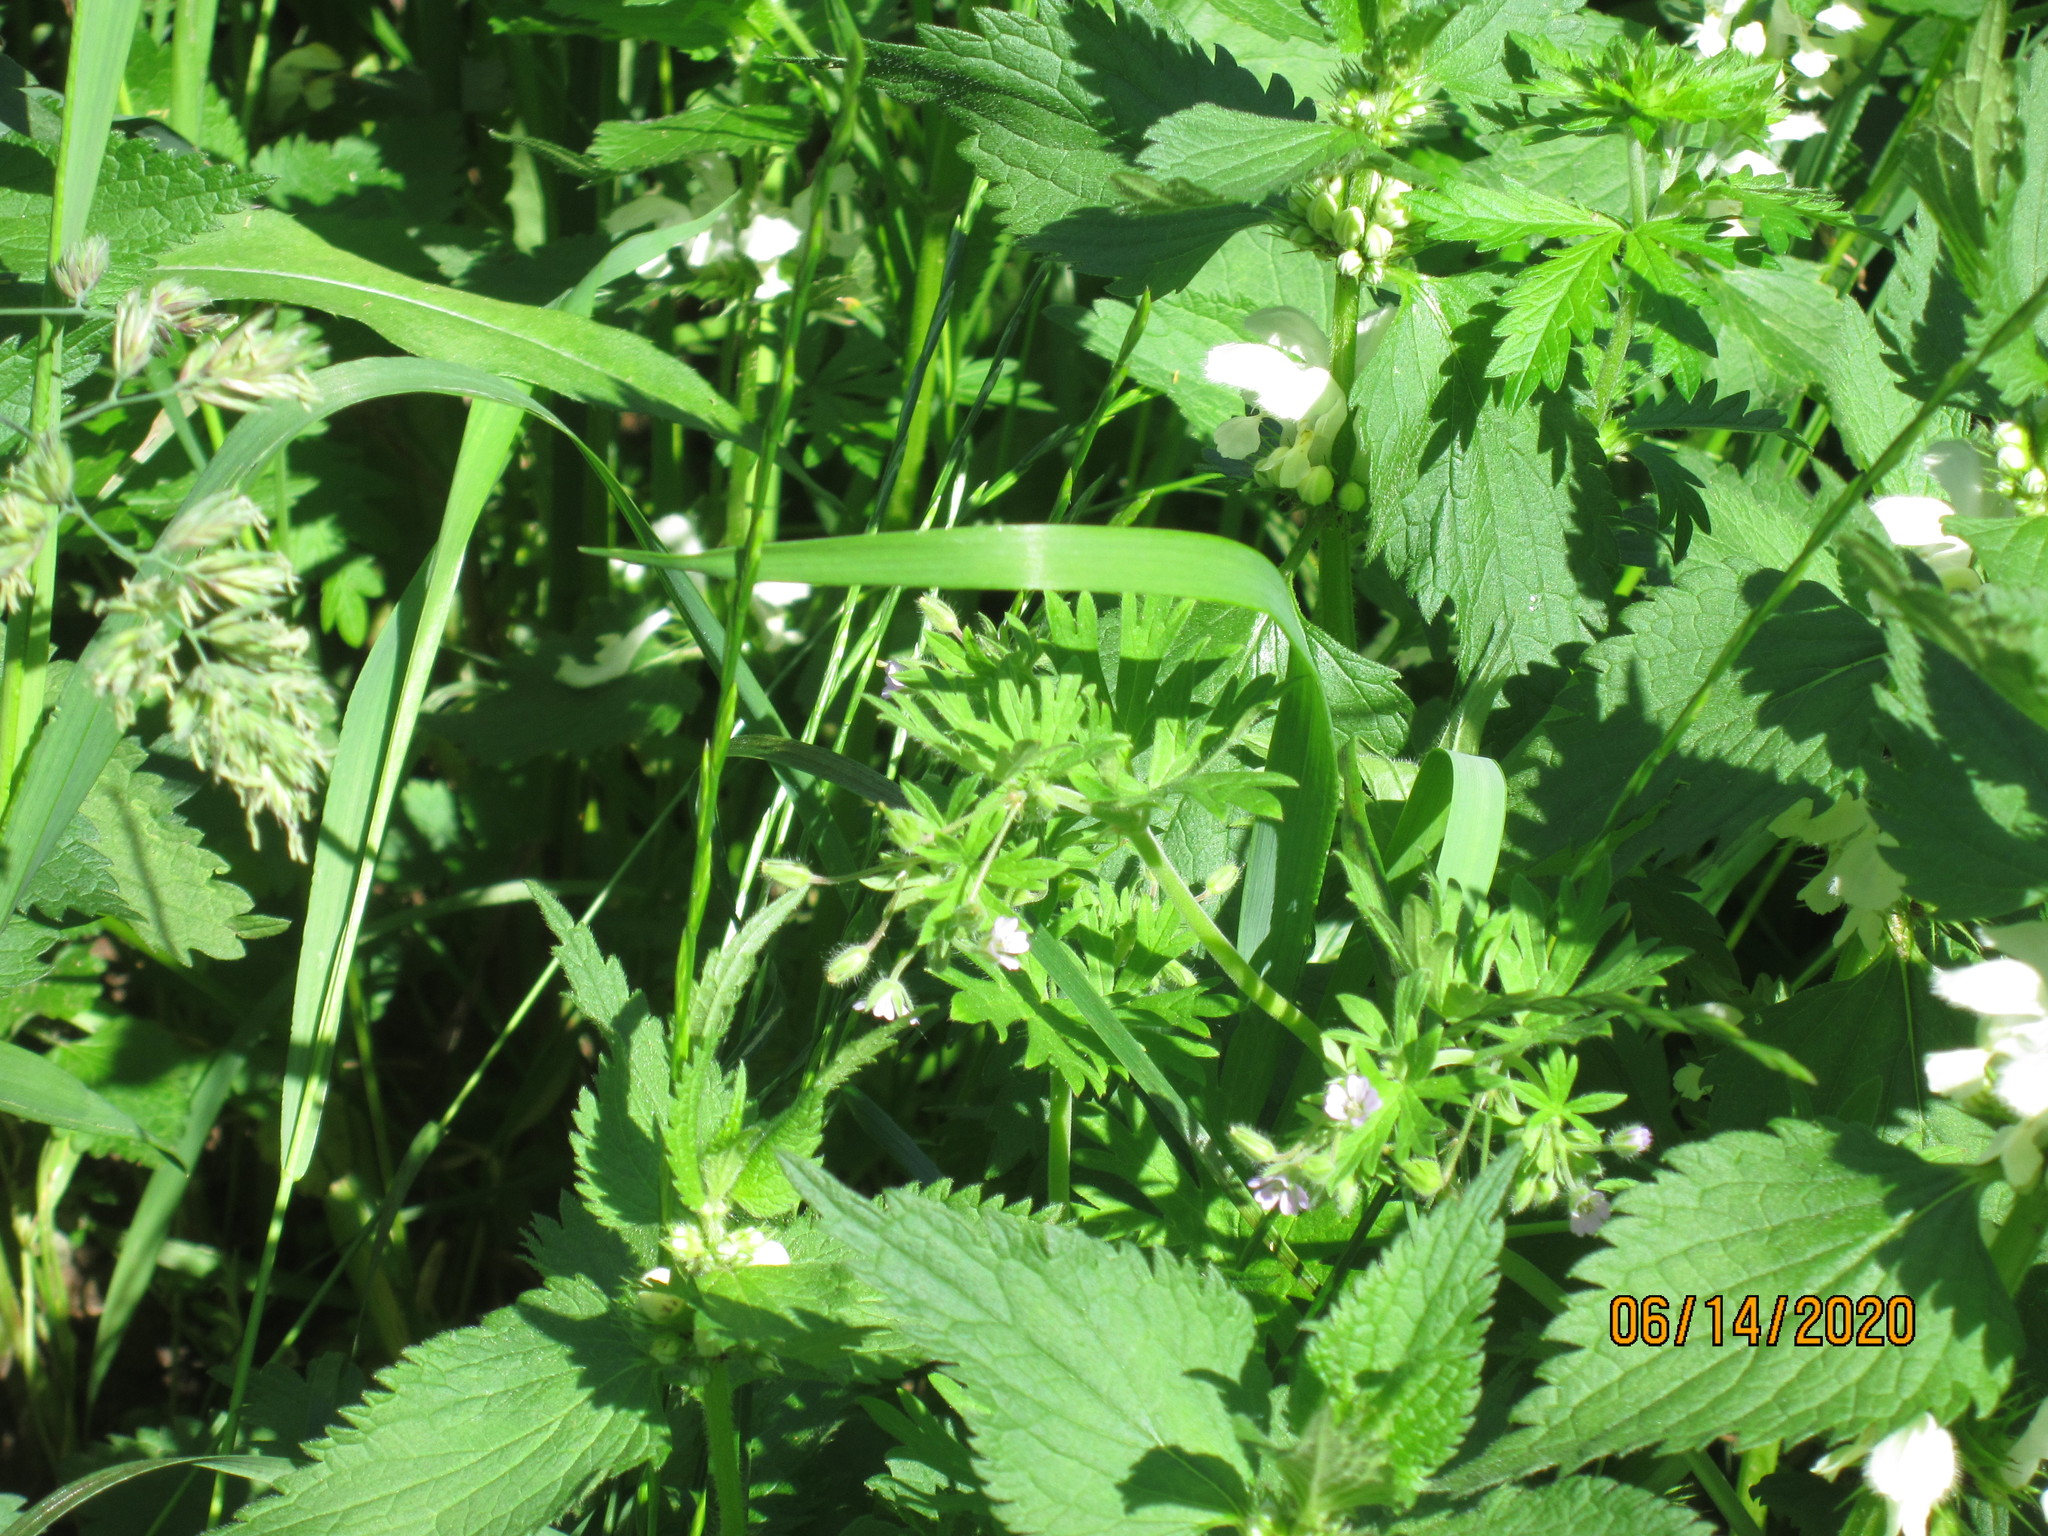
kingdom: Plantae
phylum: Tracheophyta
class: Magnoliopsida
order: Geraniales
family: Geraniaceae
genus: Geranium
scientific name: Geranium pusillum
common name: Small geranium
